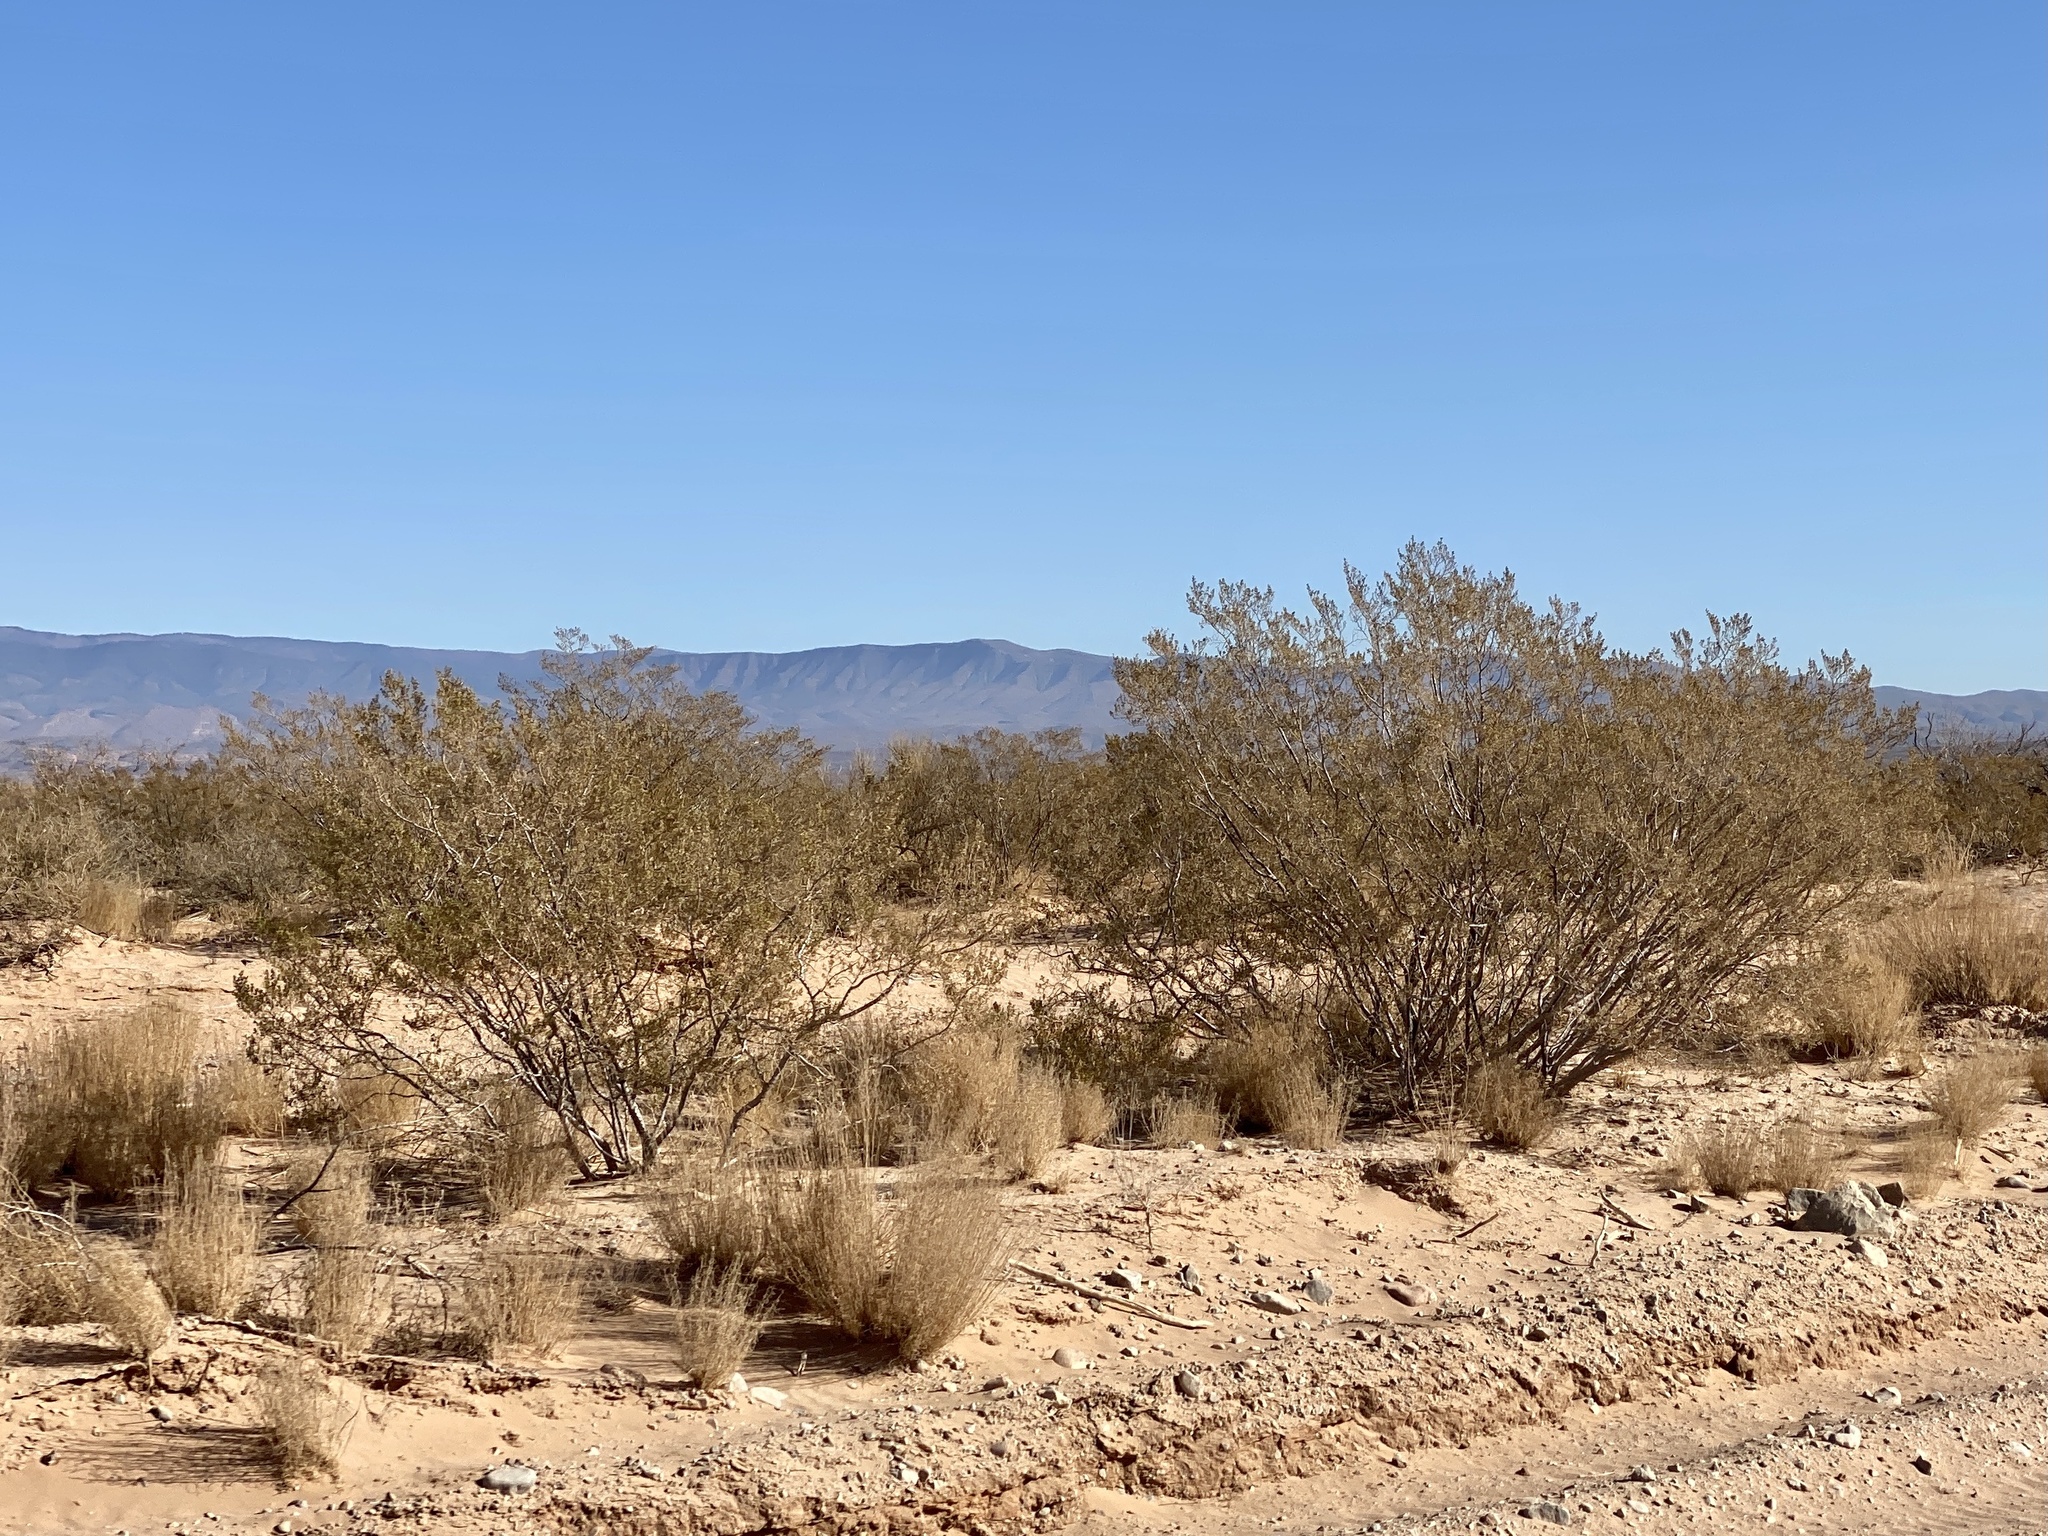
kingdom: Plantae
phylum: Tracheophyta
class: Magnoliopsida
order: Zygophyllales
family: Zygophyllaceae
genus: Larrea
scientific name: Larrea tridentata
